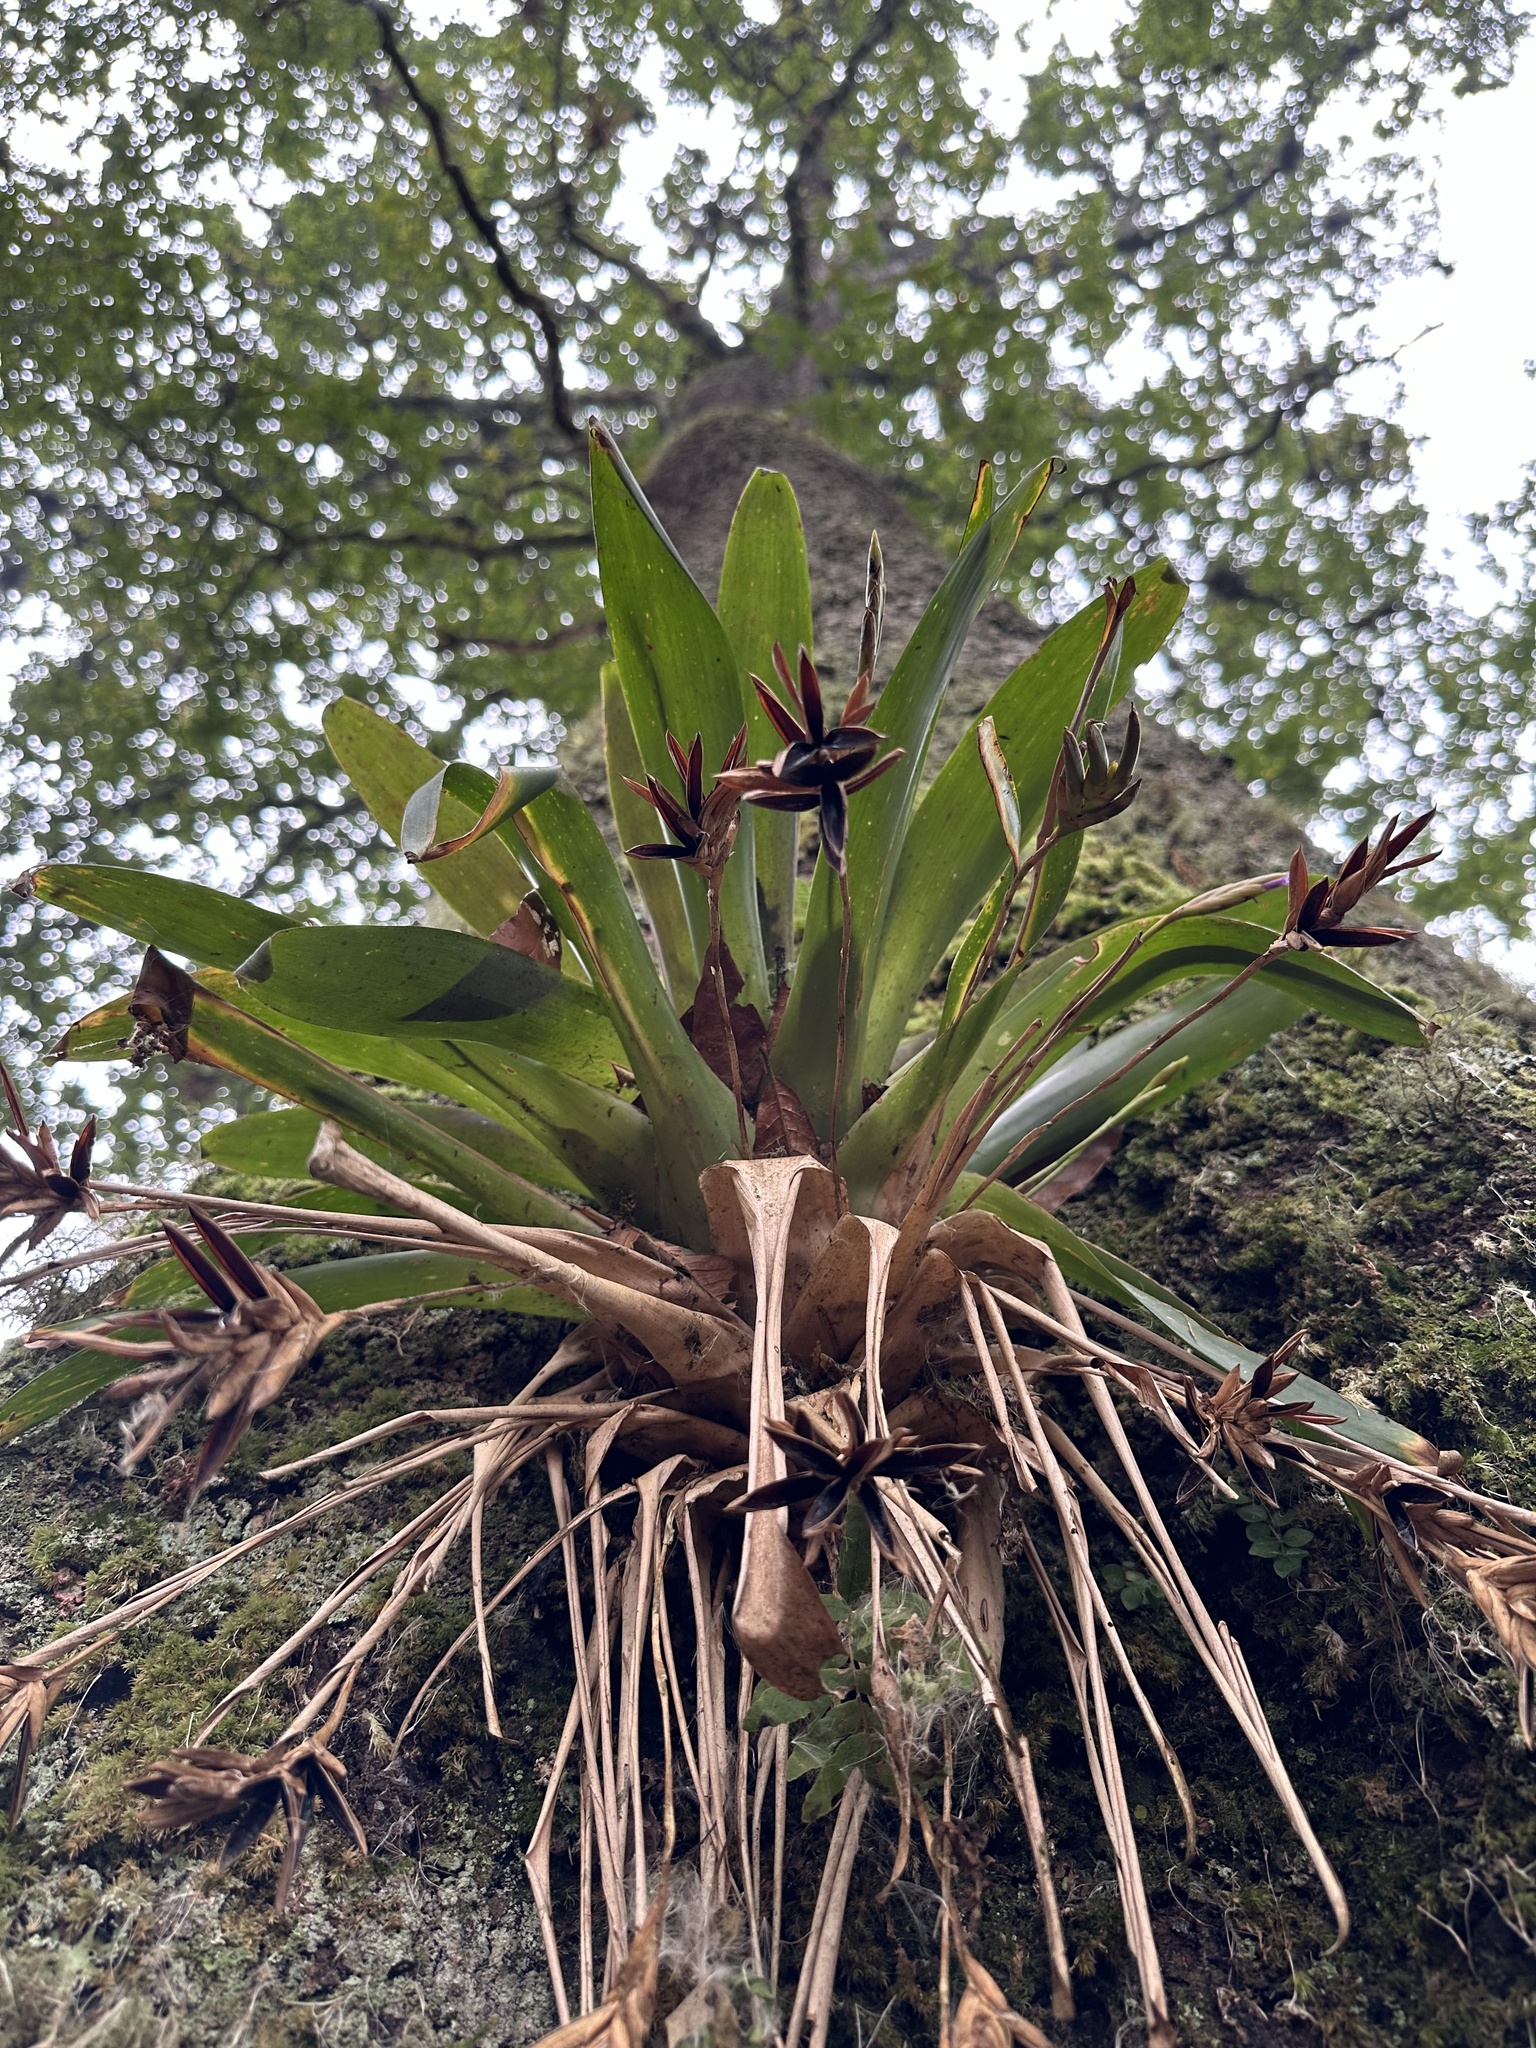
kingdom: Plantae
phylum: Tracheophyta
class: Liliopsida
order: Poales
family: Bromeliaceae
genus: Tillandsia
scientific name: Tillandsia complanata
